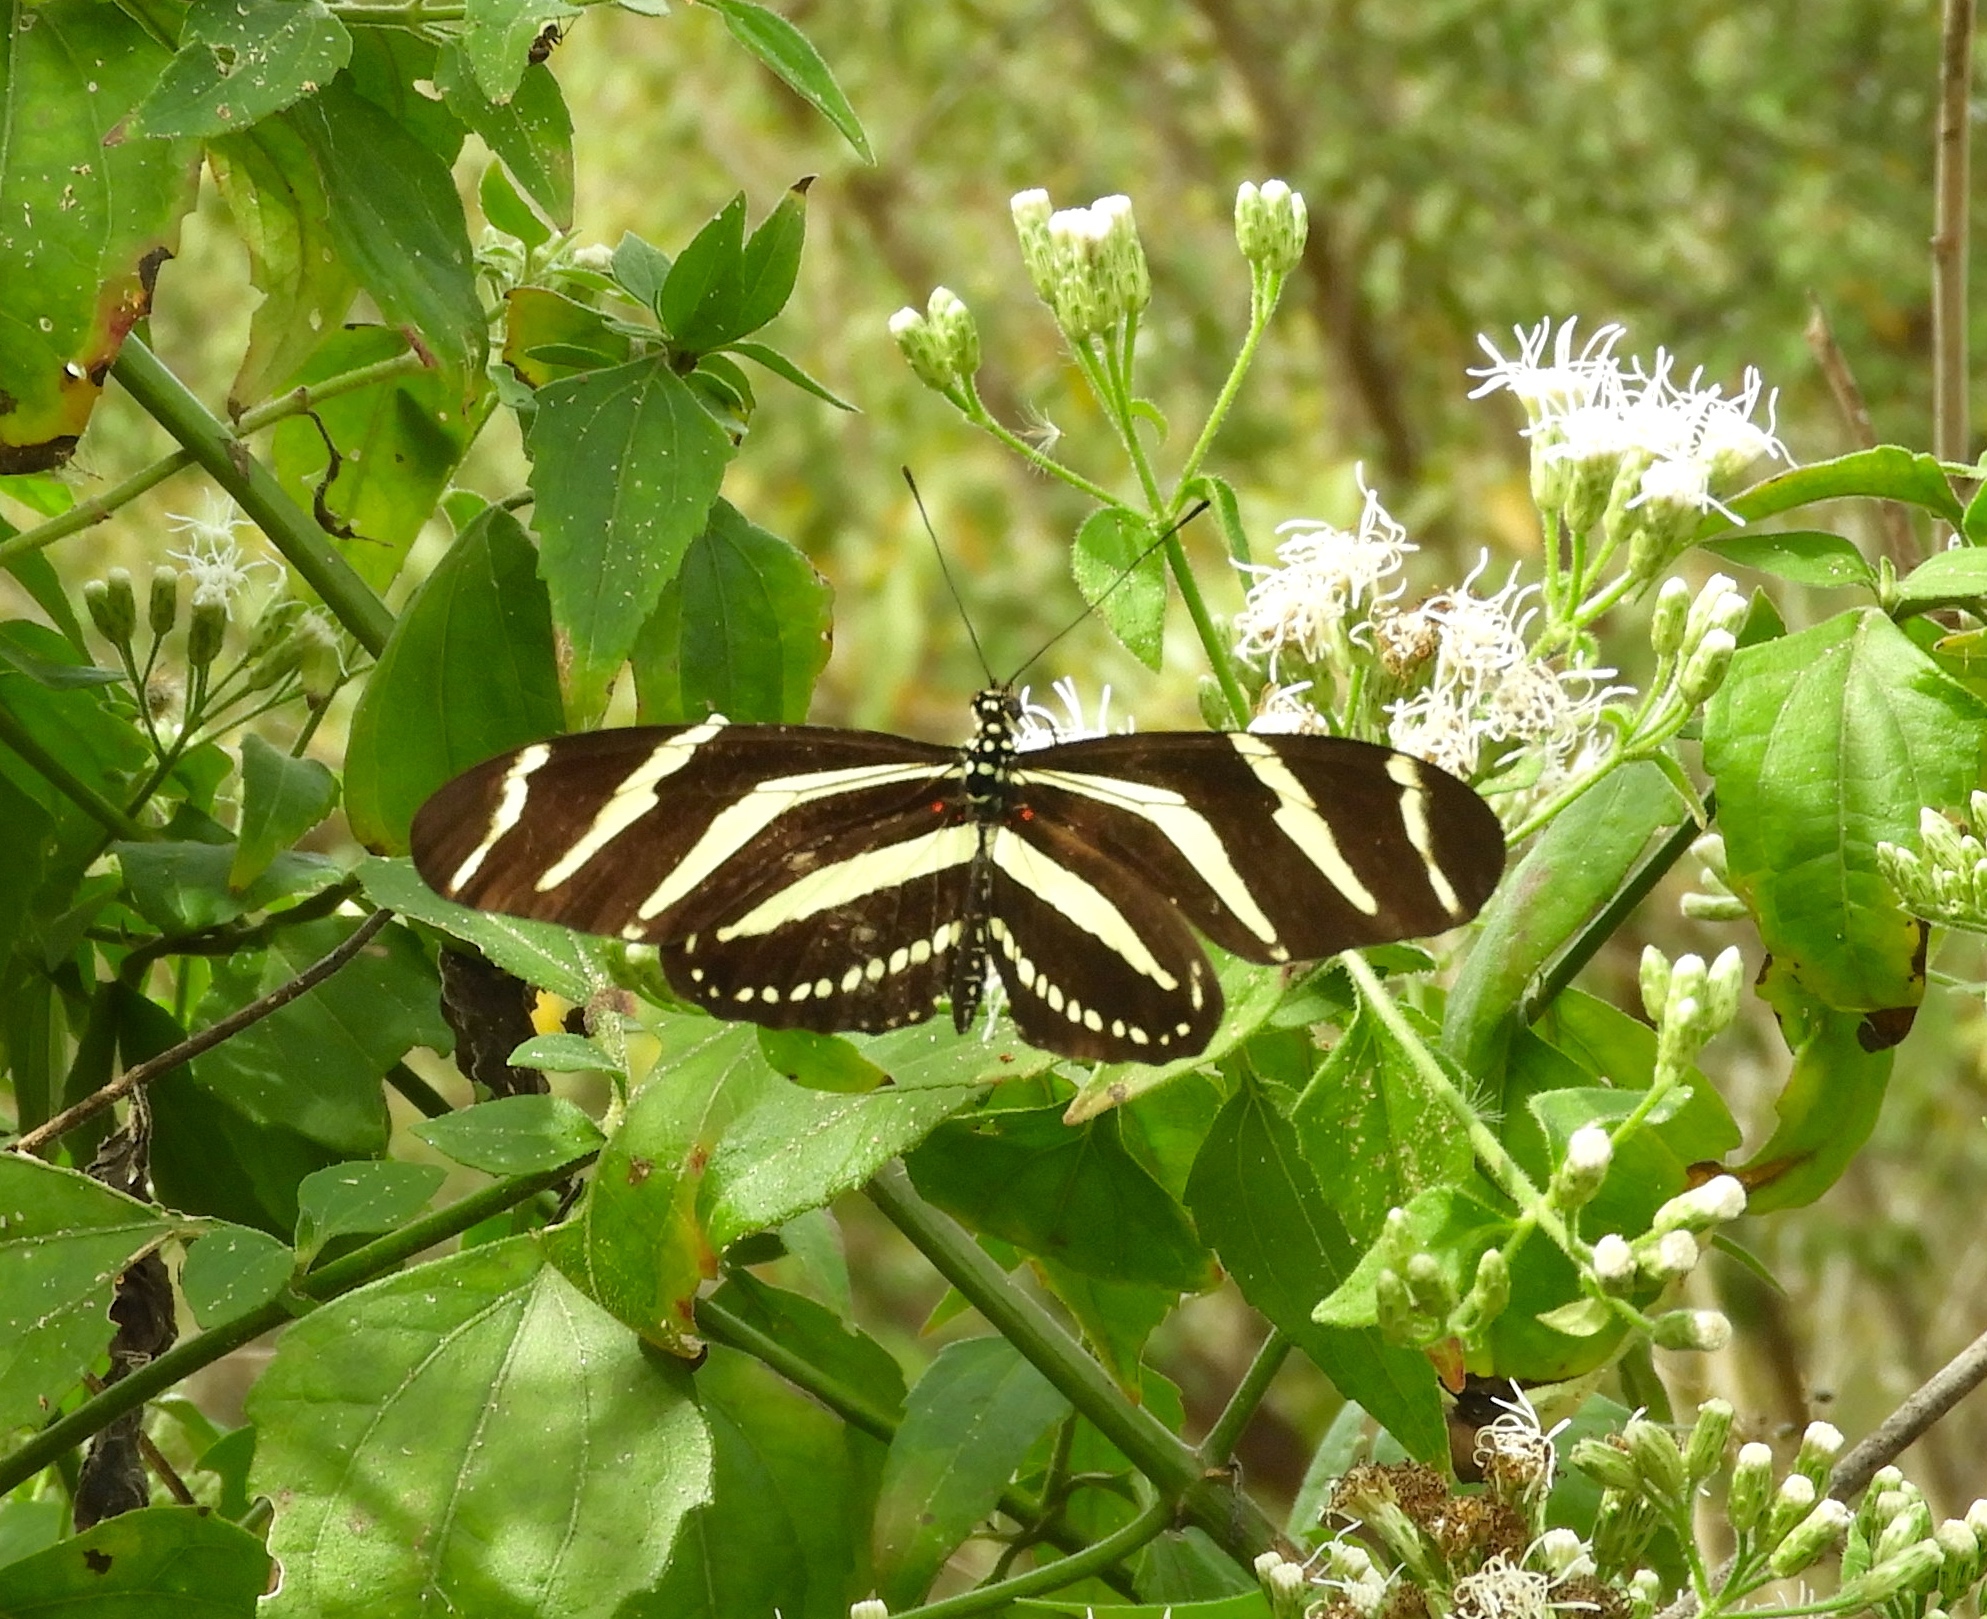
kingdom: Animalia
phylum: Arthropoda
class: Insecta
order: Lepidoptera
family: Nymphalidae
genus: Heliconius
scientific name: Heliconius charithonia
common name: Zebra long wing
